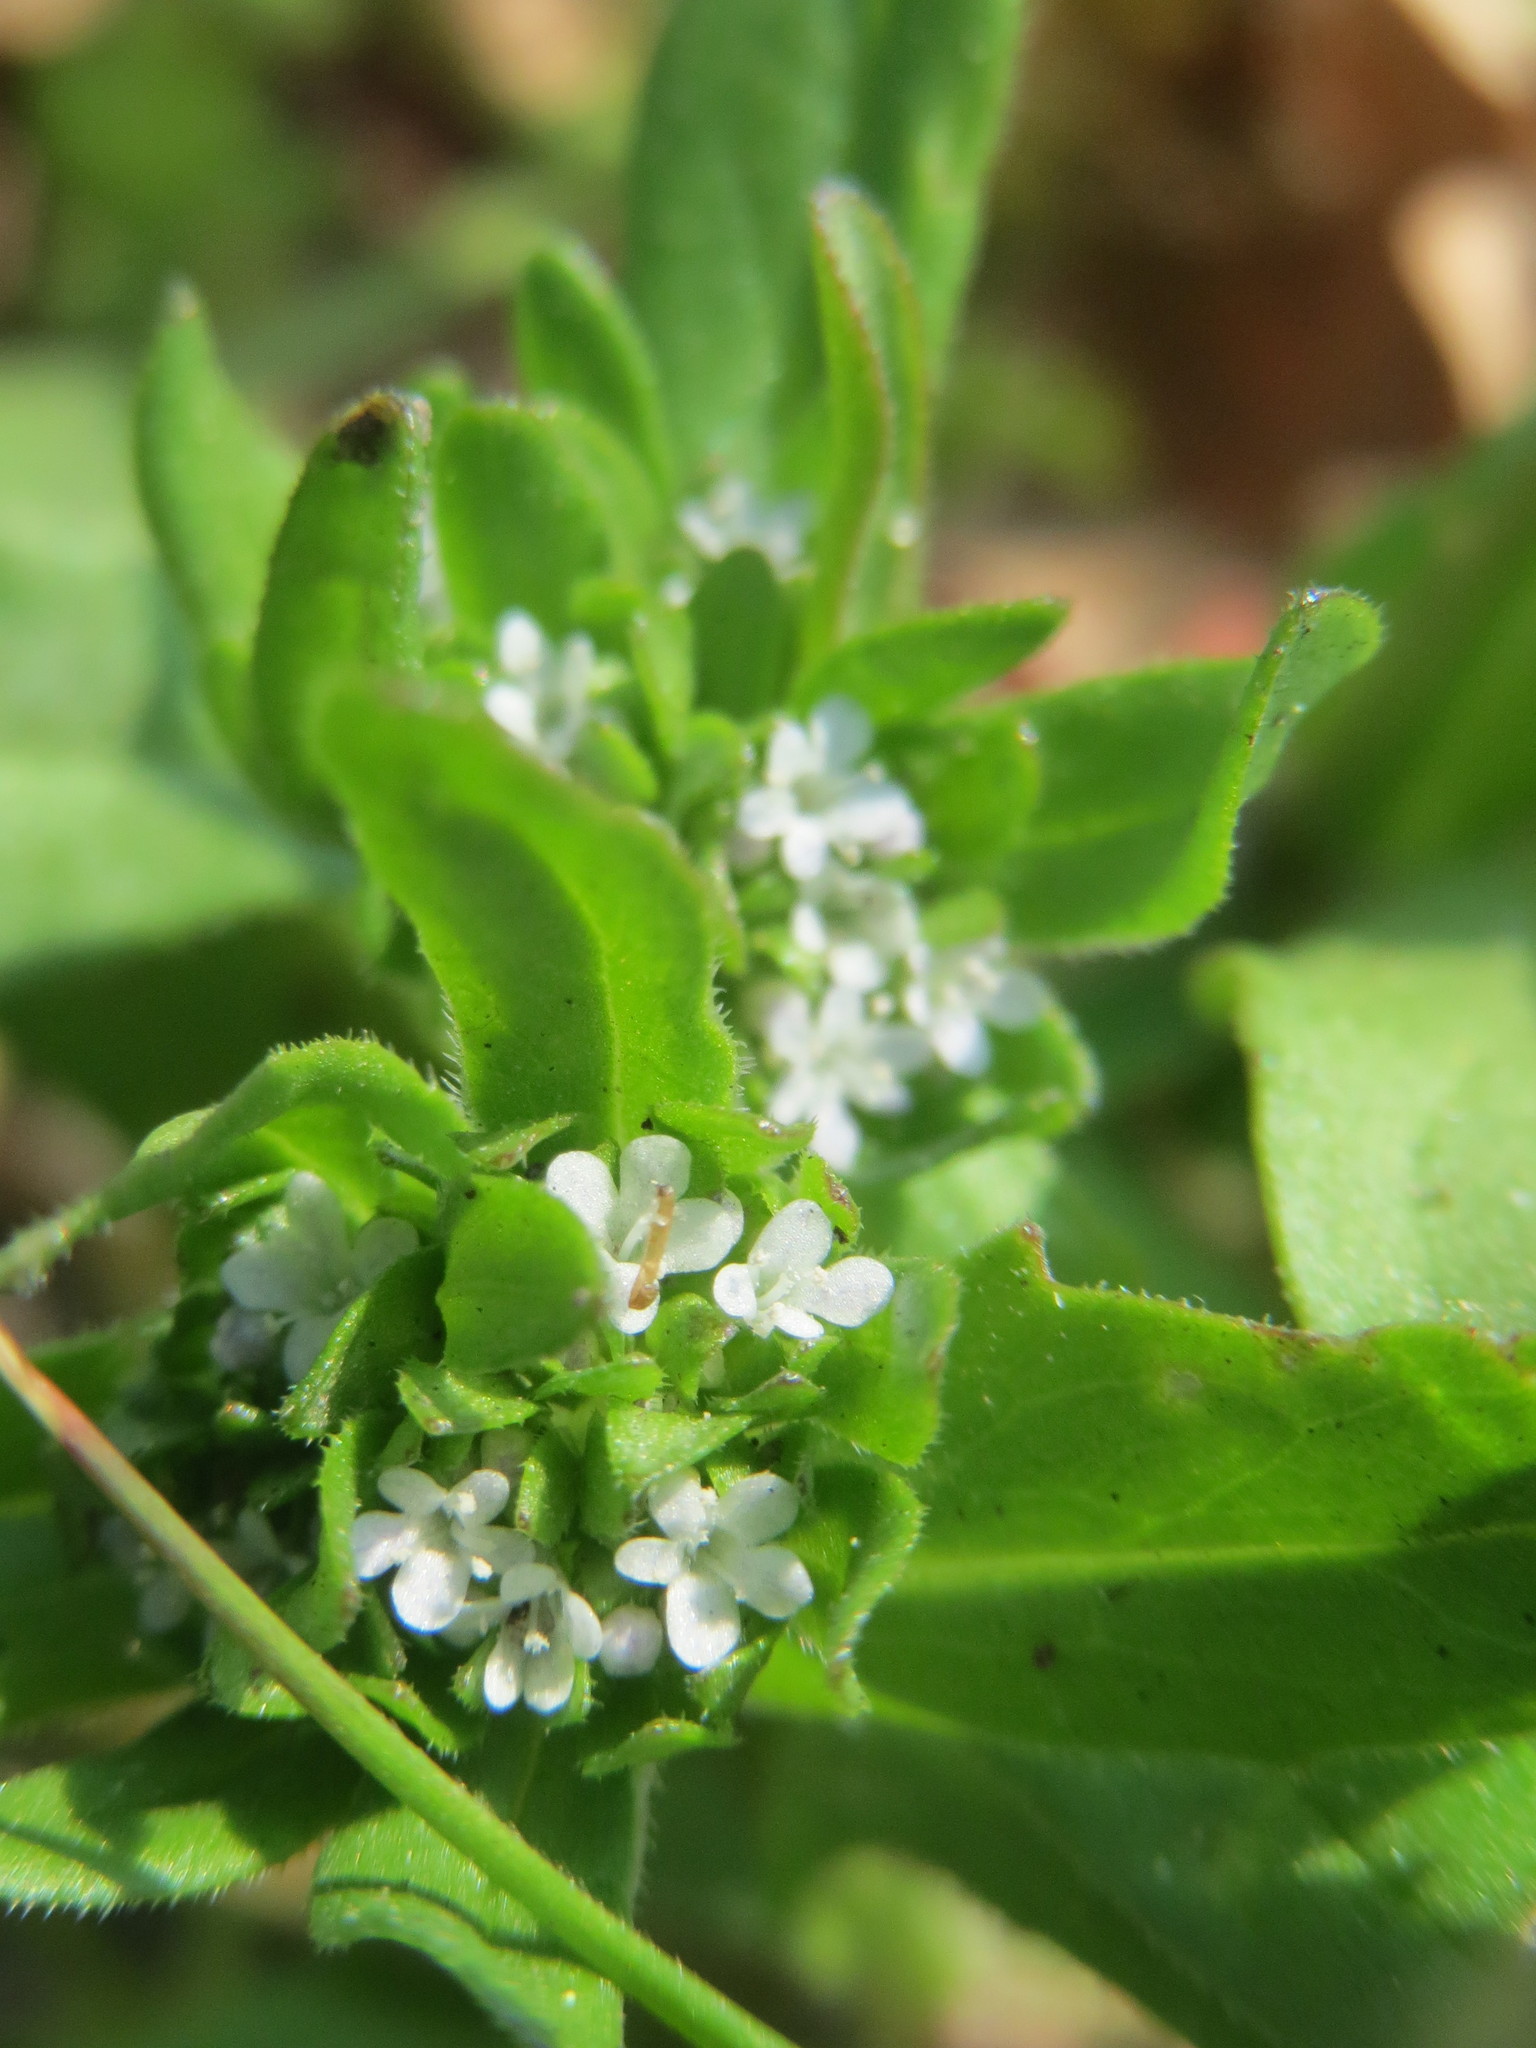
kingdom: Plantae
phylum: Tracheophyta
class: Magnoliopsida
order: Dipsacales
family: Caprifoliaceae
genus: Valerianella
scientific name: Valerianella locusta
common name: Common cornsalad
